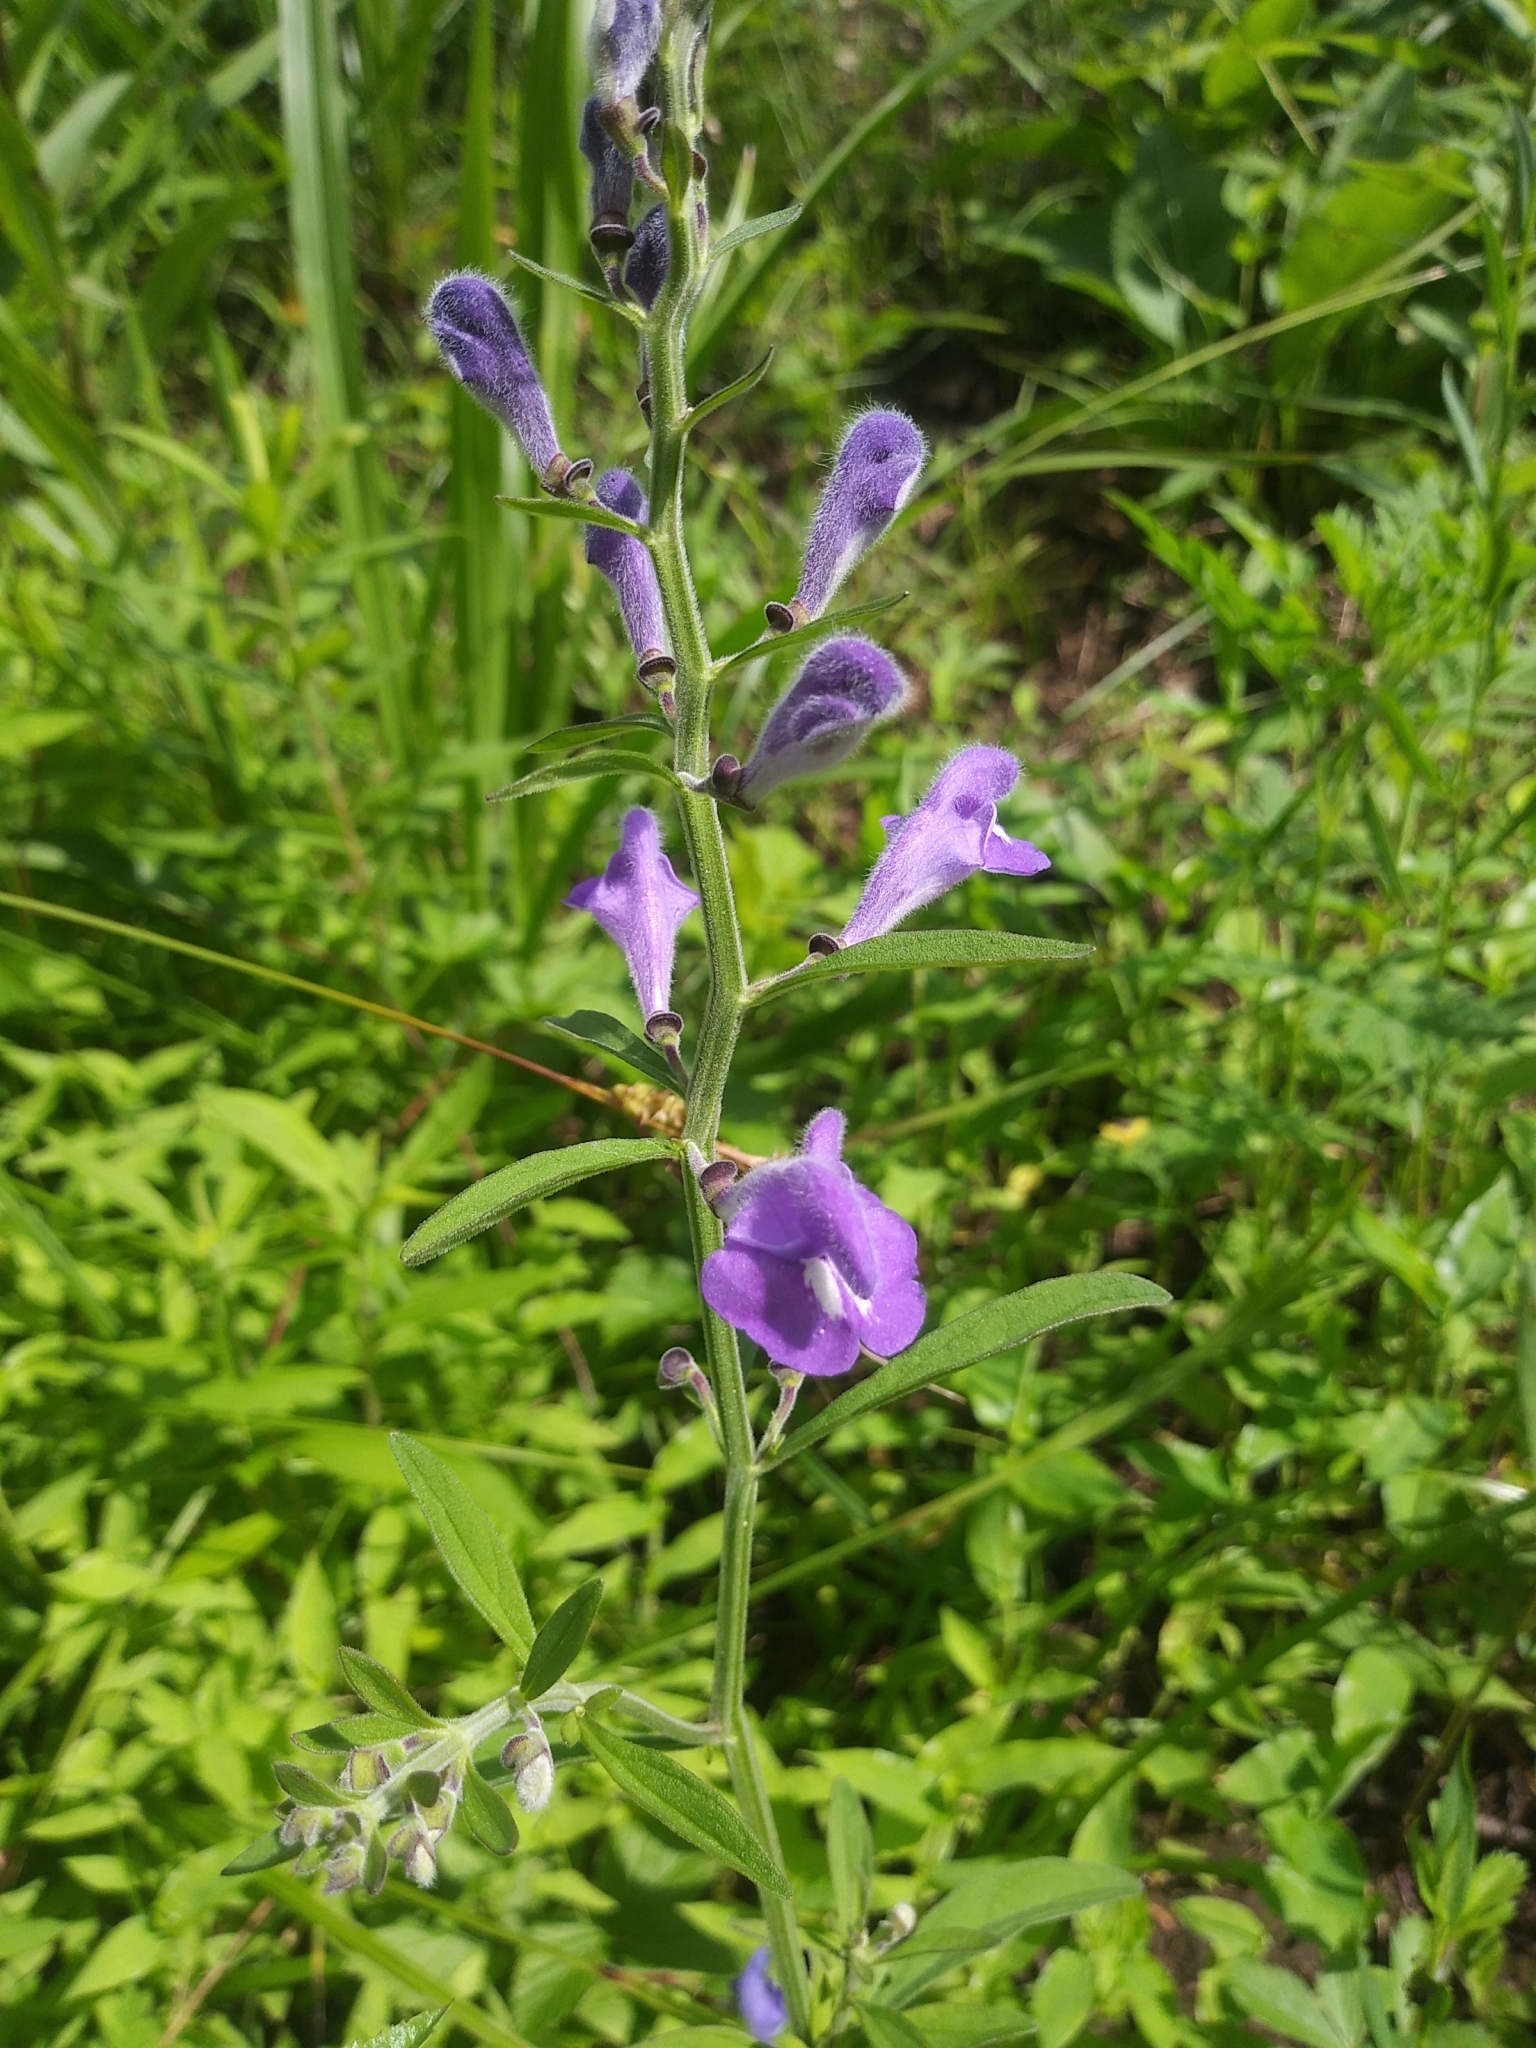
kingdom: Plantae
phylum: Tracheophyta
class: Magnoliopsida
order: Lamiales
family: Lamiaceae
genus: Scutellaria
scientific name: Scutellaria integrifolia
